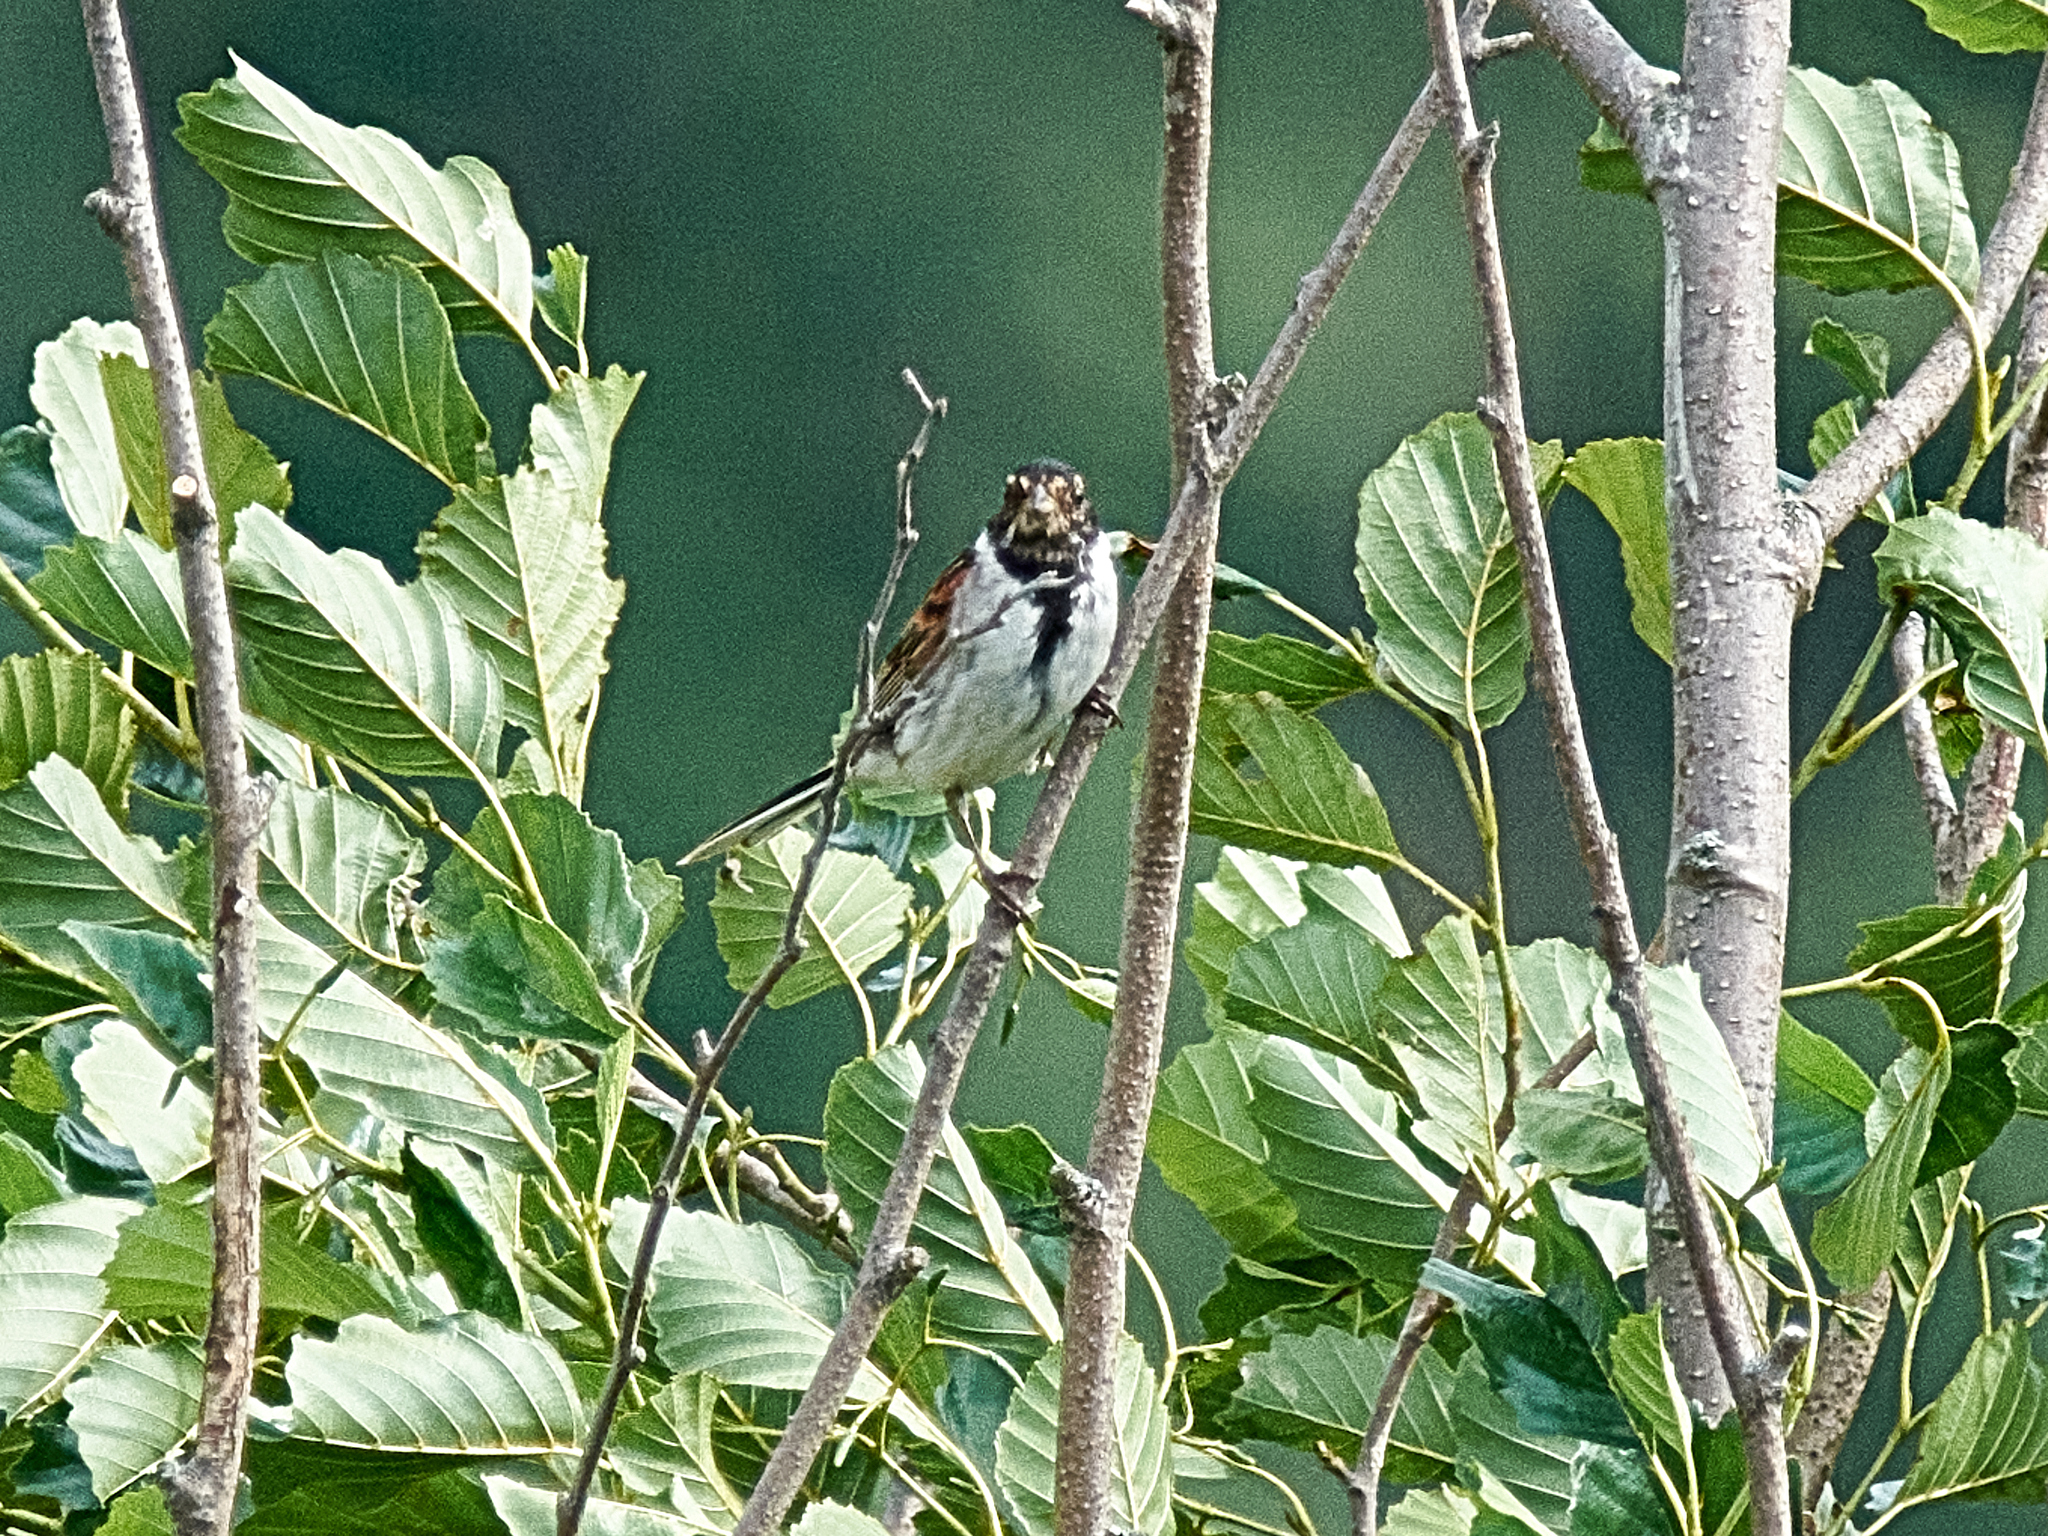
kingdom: Animalia
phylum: Chordata
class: Aves
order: Passeriformes
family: Emberizidae
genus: Emberiza
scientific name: Emberiza schoeniclus
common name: Reed bunting
